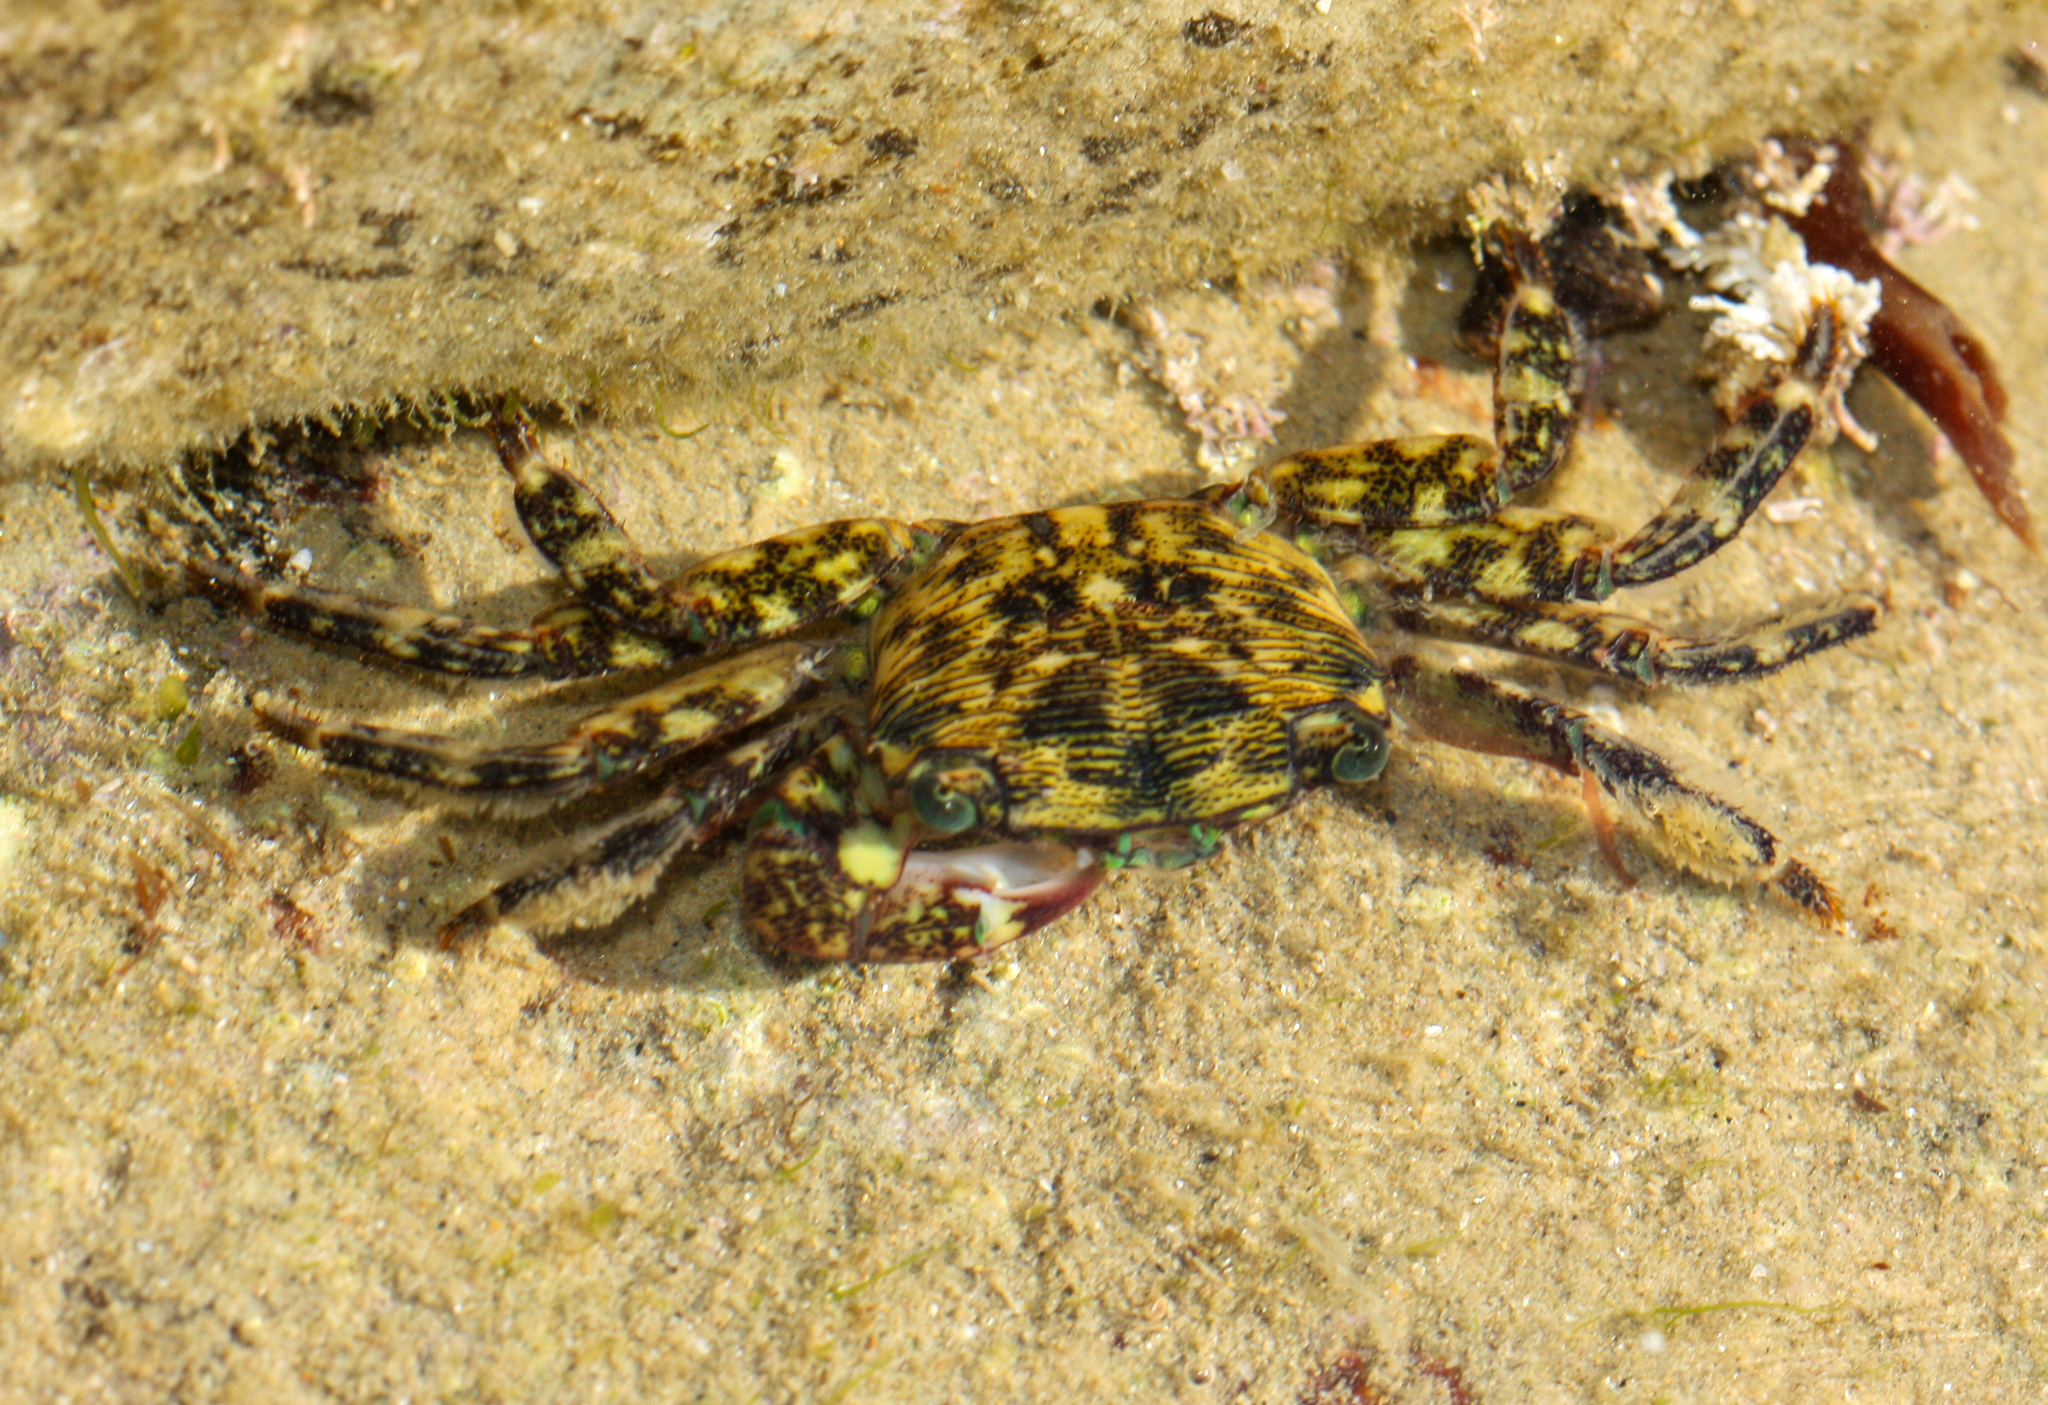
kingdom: Animalia
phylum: Arthropoda
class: Malacostraca
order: Decapoda
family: Grapsidae
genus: Pachygrapsus
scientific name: Pachygrapsus crassipes
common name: Striped shore crab
